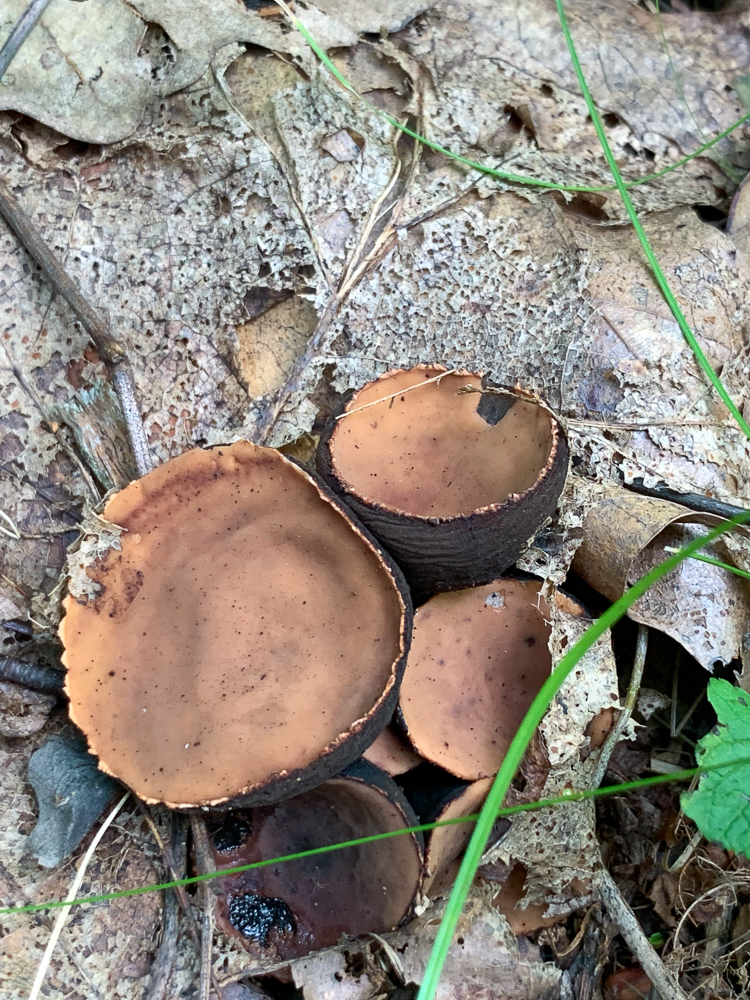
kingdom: Fungi
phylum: Ascomycota
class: Pezizomycetes
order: Pezizales
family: Sarcosomataceae
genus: Galiella
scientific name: Galiella rufa
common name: Hairy rubber cup
